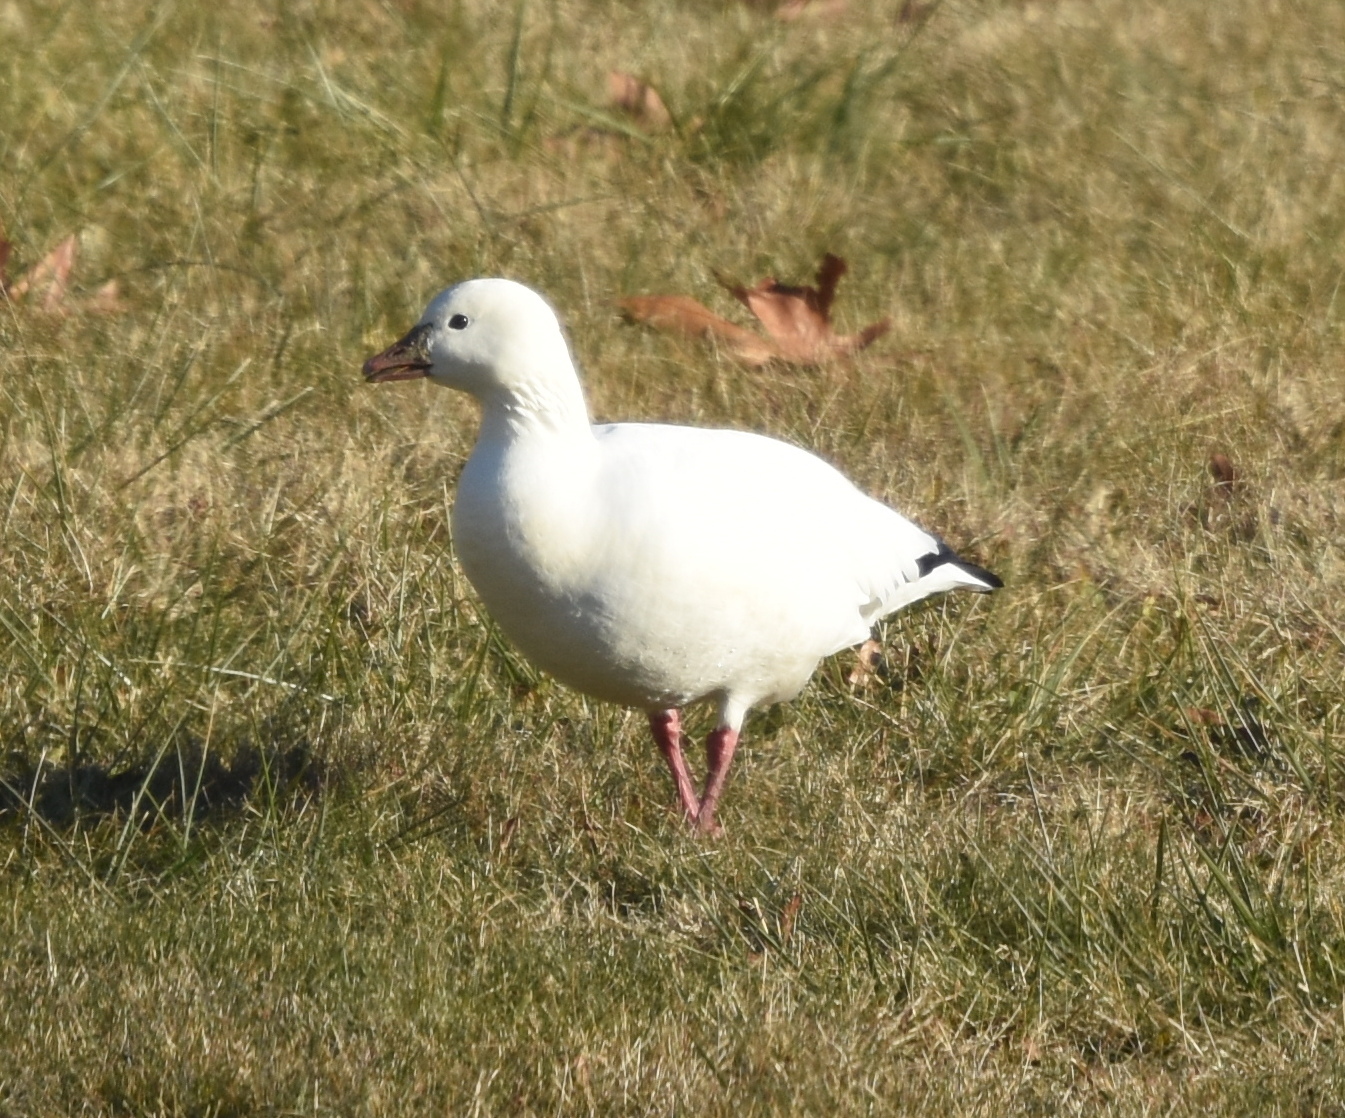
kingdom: Animalia
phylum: Chordata
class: Aves
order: Anseriformes
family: Anatidae
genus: Anser
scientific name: Anser rossii
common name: Ross's goose
